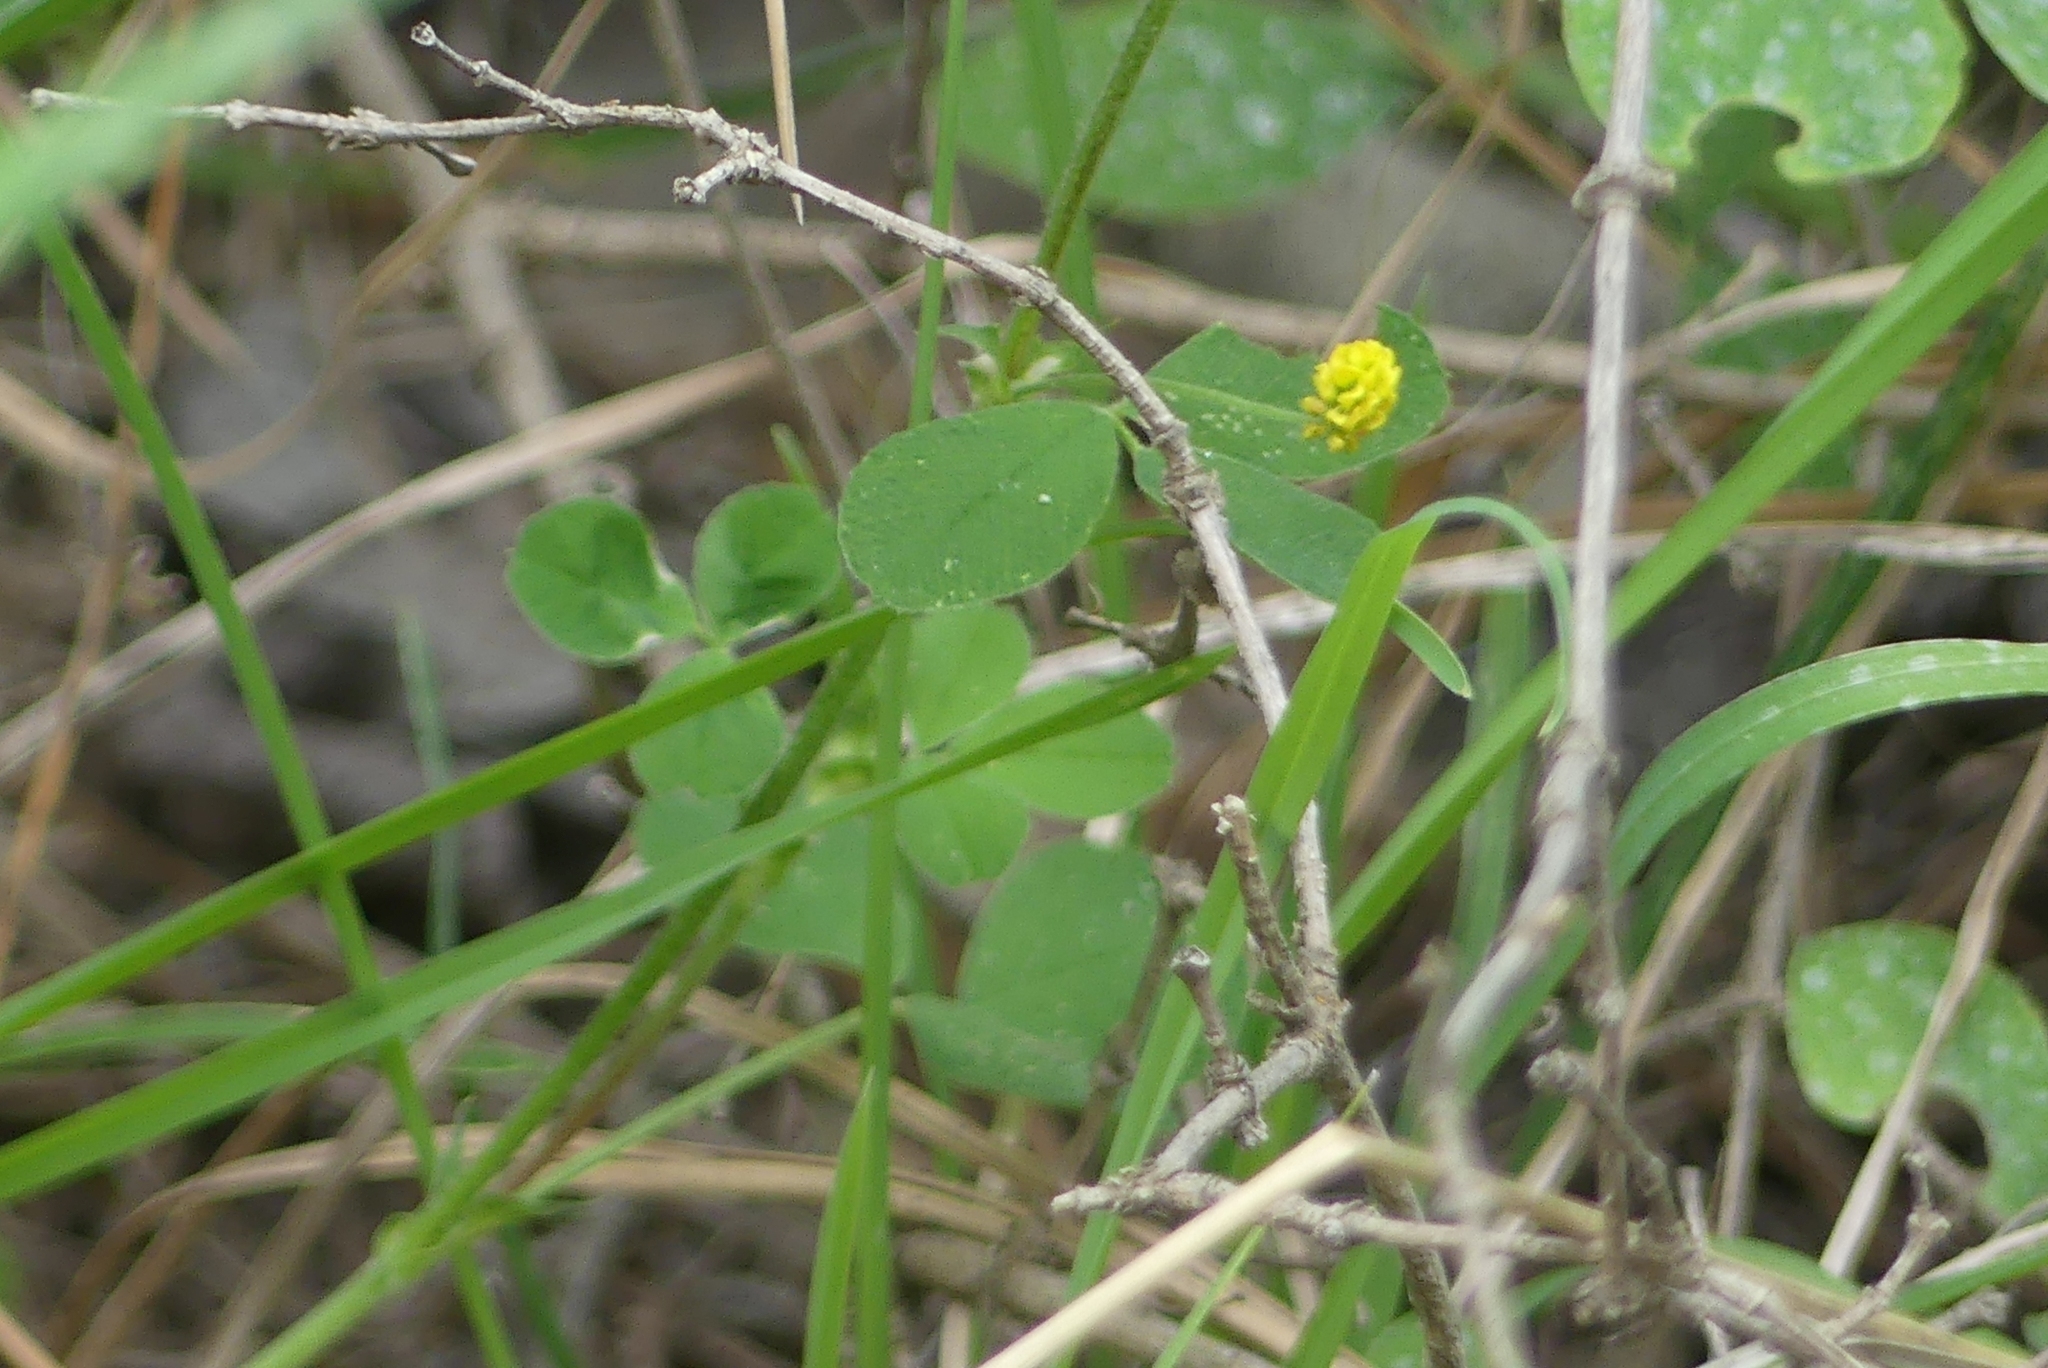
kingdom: Plantae
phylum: Tracheophyta
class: Magnoliopsida
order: Fabales
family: Fabaceae
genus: Medicago
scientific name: Medicago lupulina
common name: Black medick
